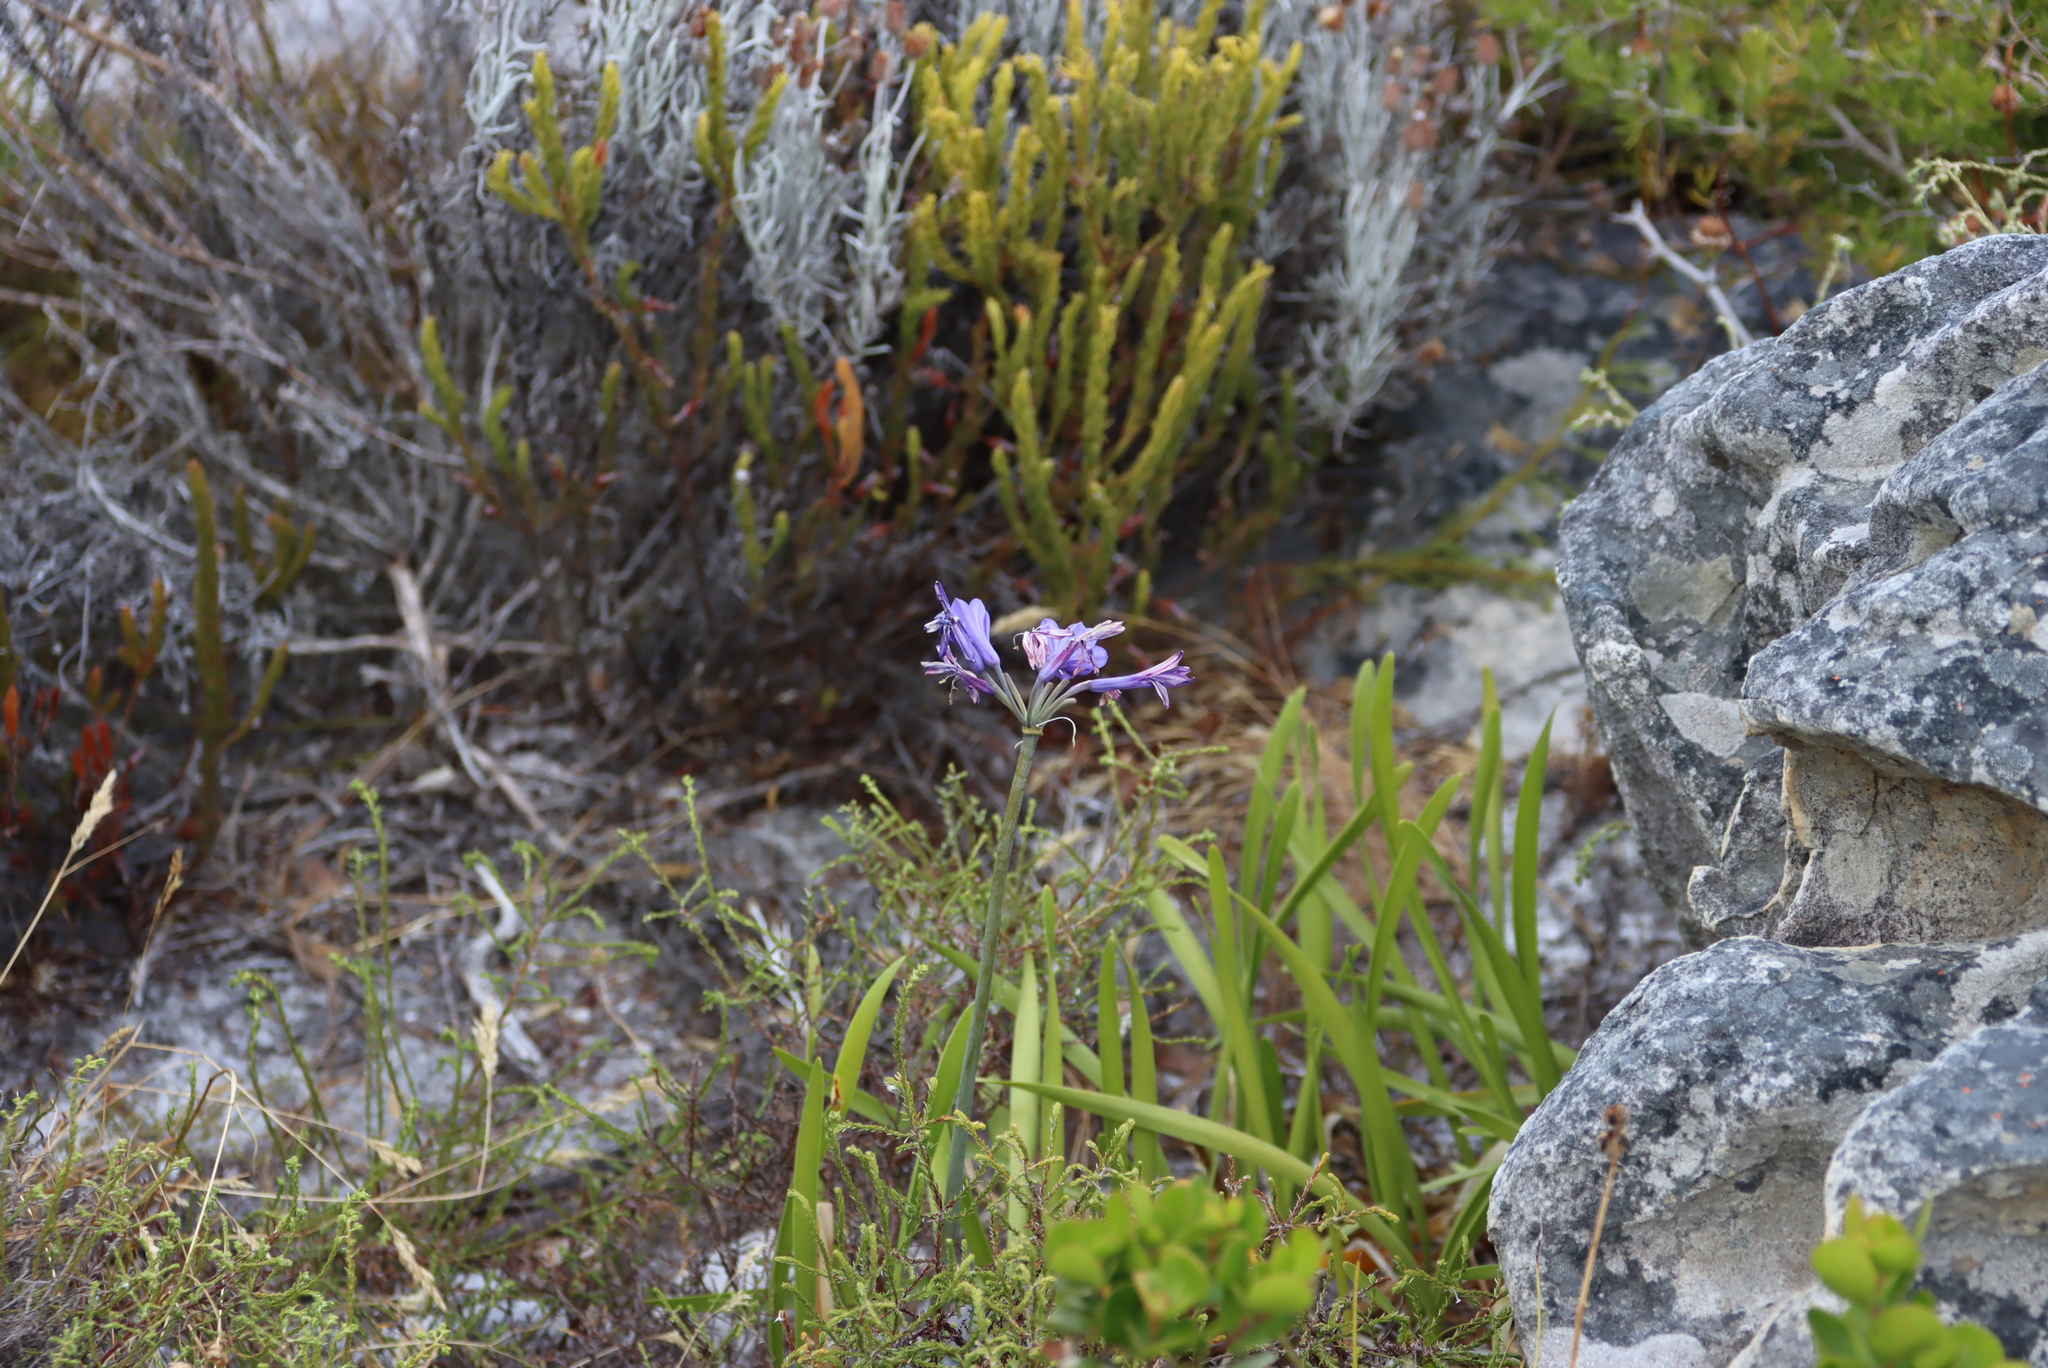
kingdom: Plantae
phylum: Tracheophyta
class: Liliopsida
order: Asparagales
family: Amaryllidaceae
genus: Agapanthus
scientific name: Agapanthus africanus
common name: Lily-of-the-nile
